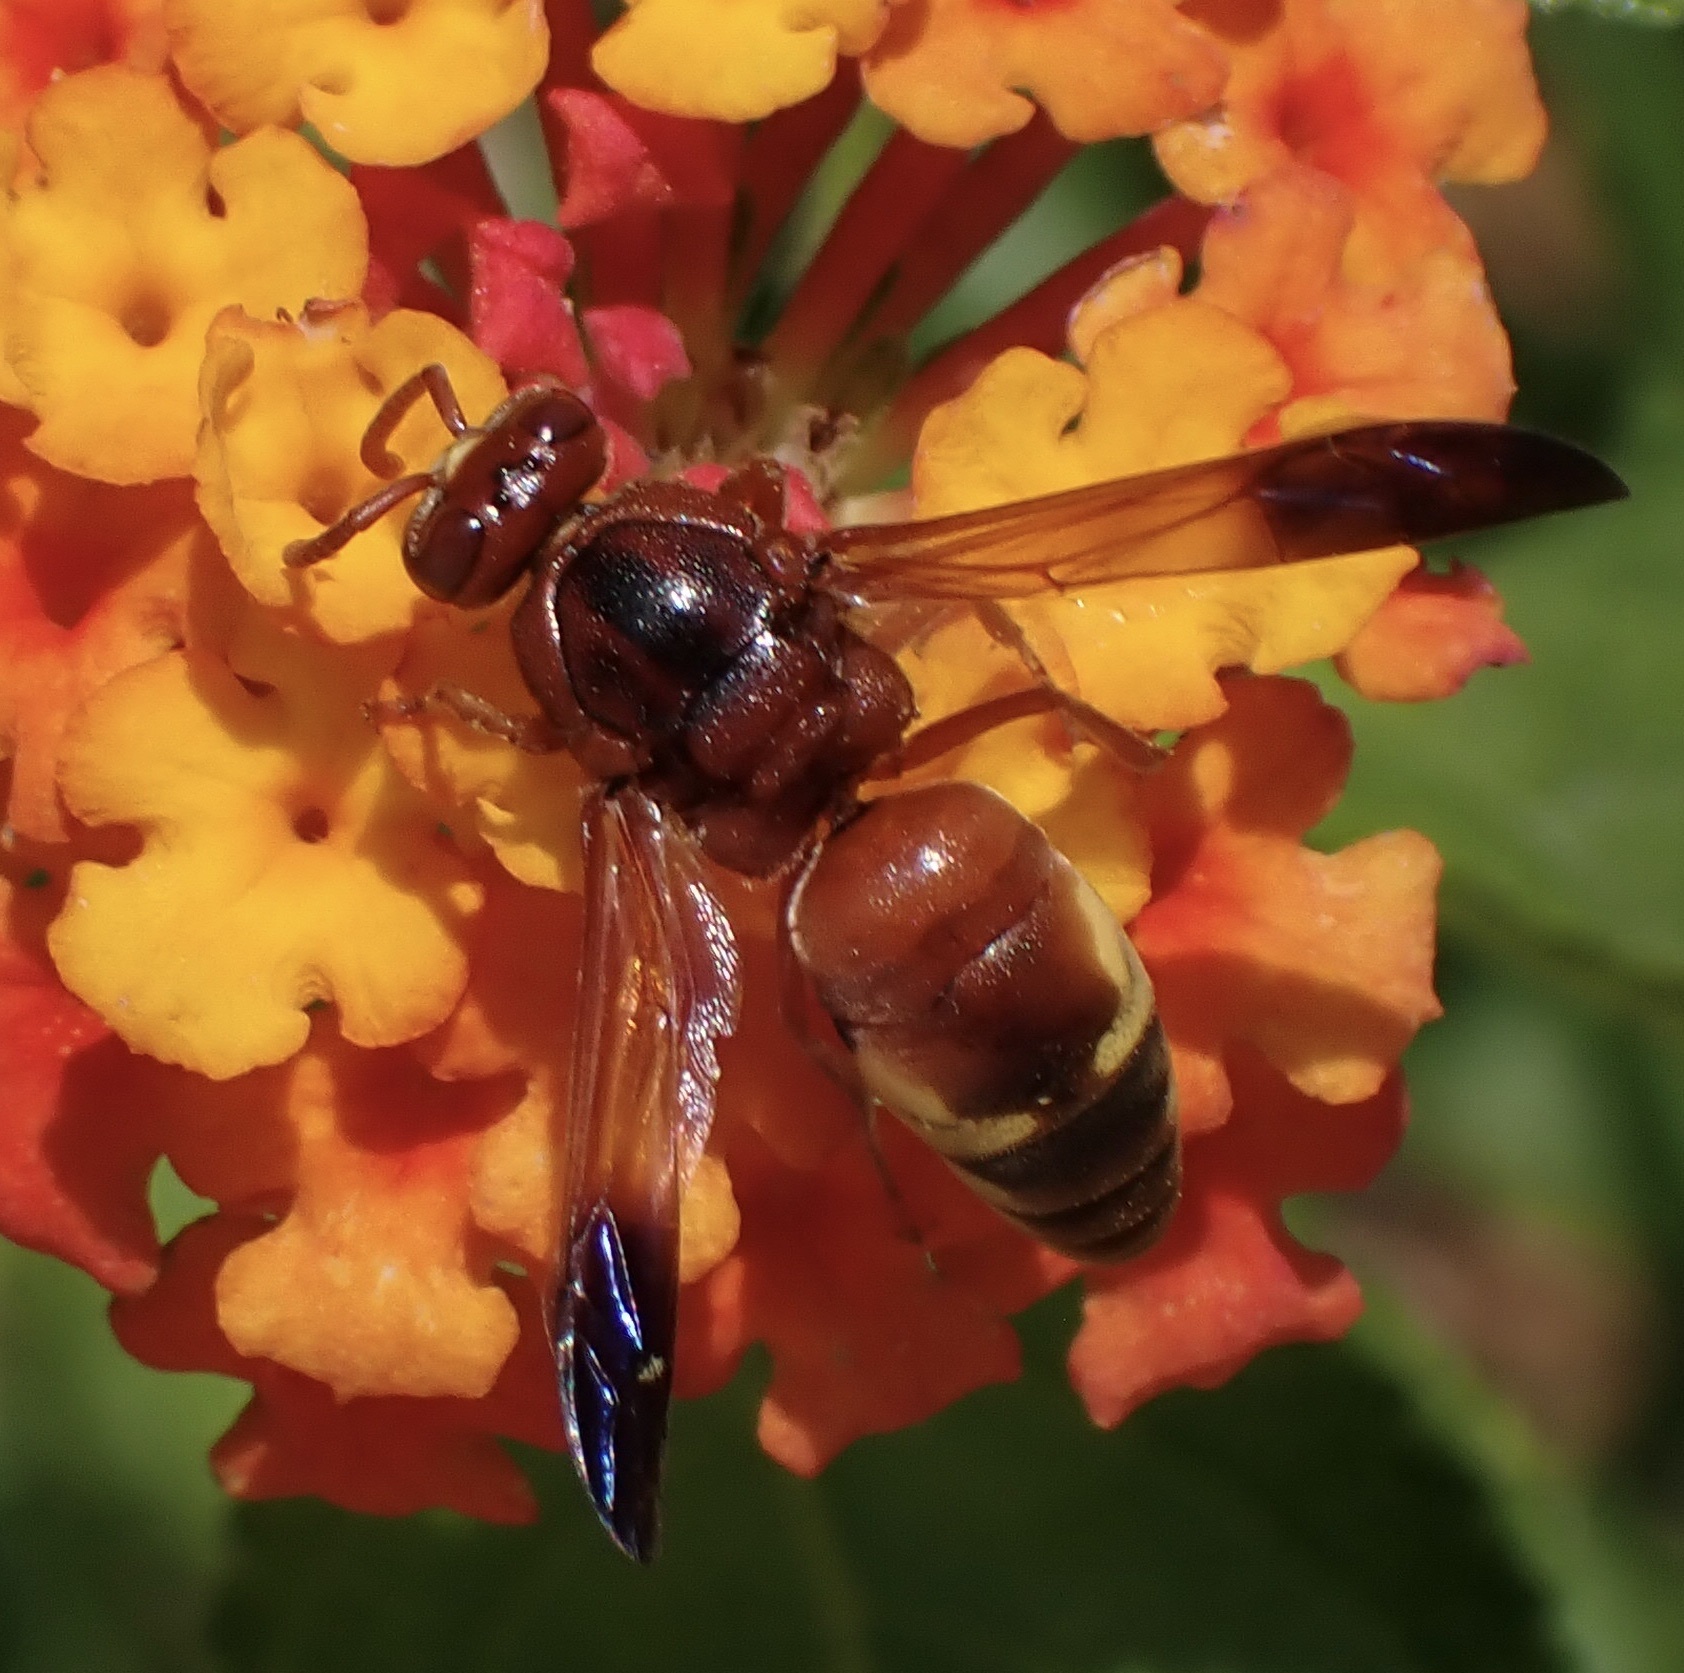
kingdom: Animalia
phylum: Arthropoda
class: Insecta
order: Hymenoptera
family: Eumenidae
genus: Rhynchium
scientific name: Rhynchium oculatum
